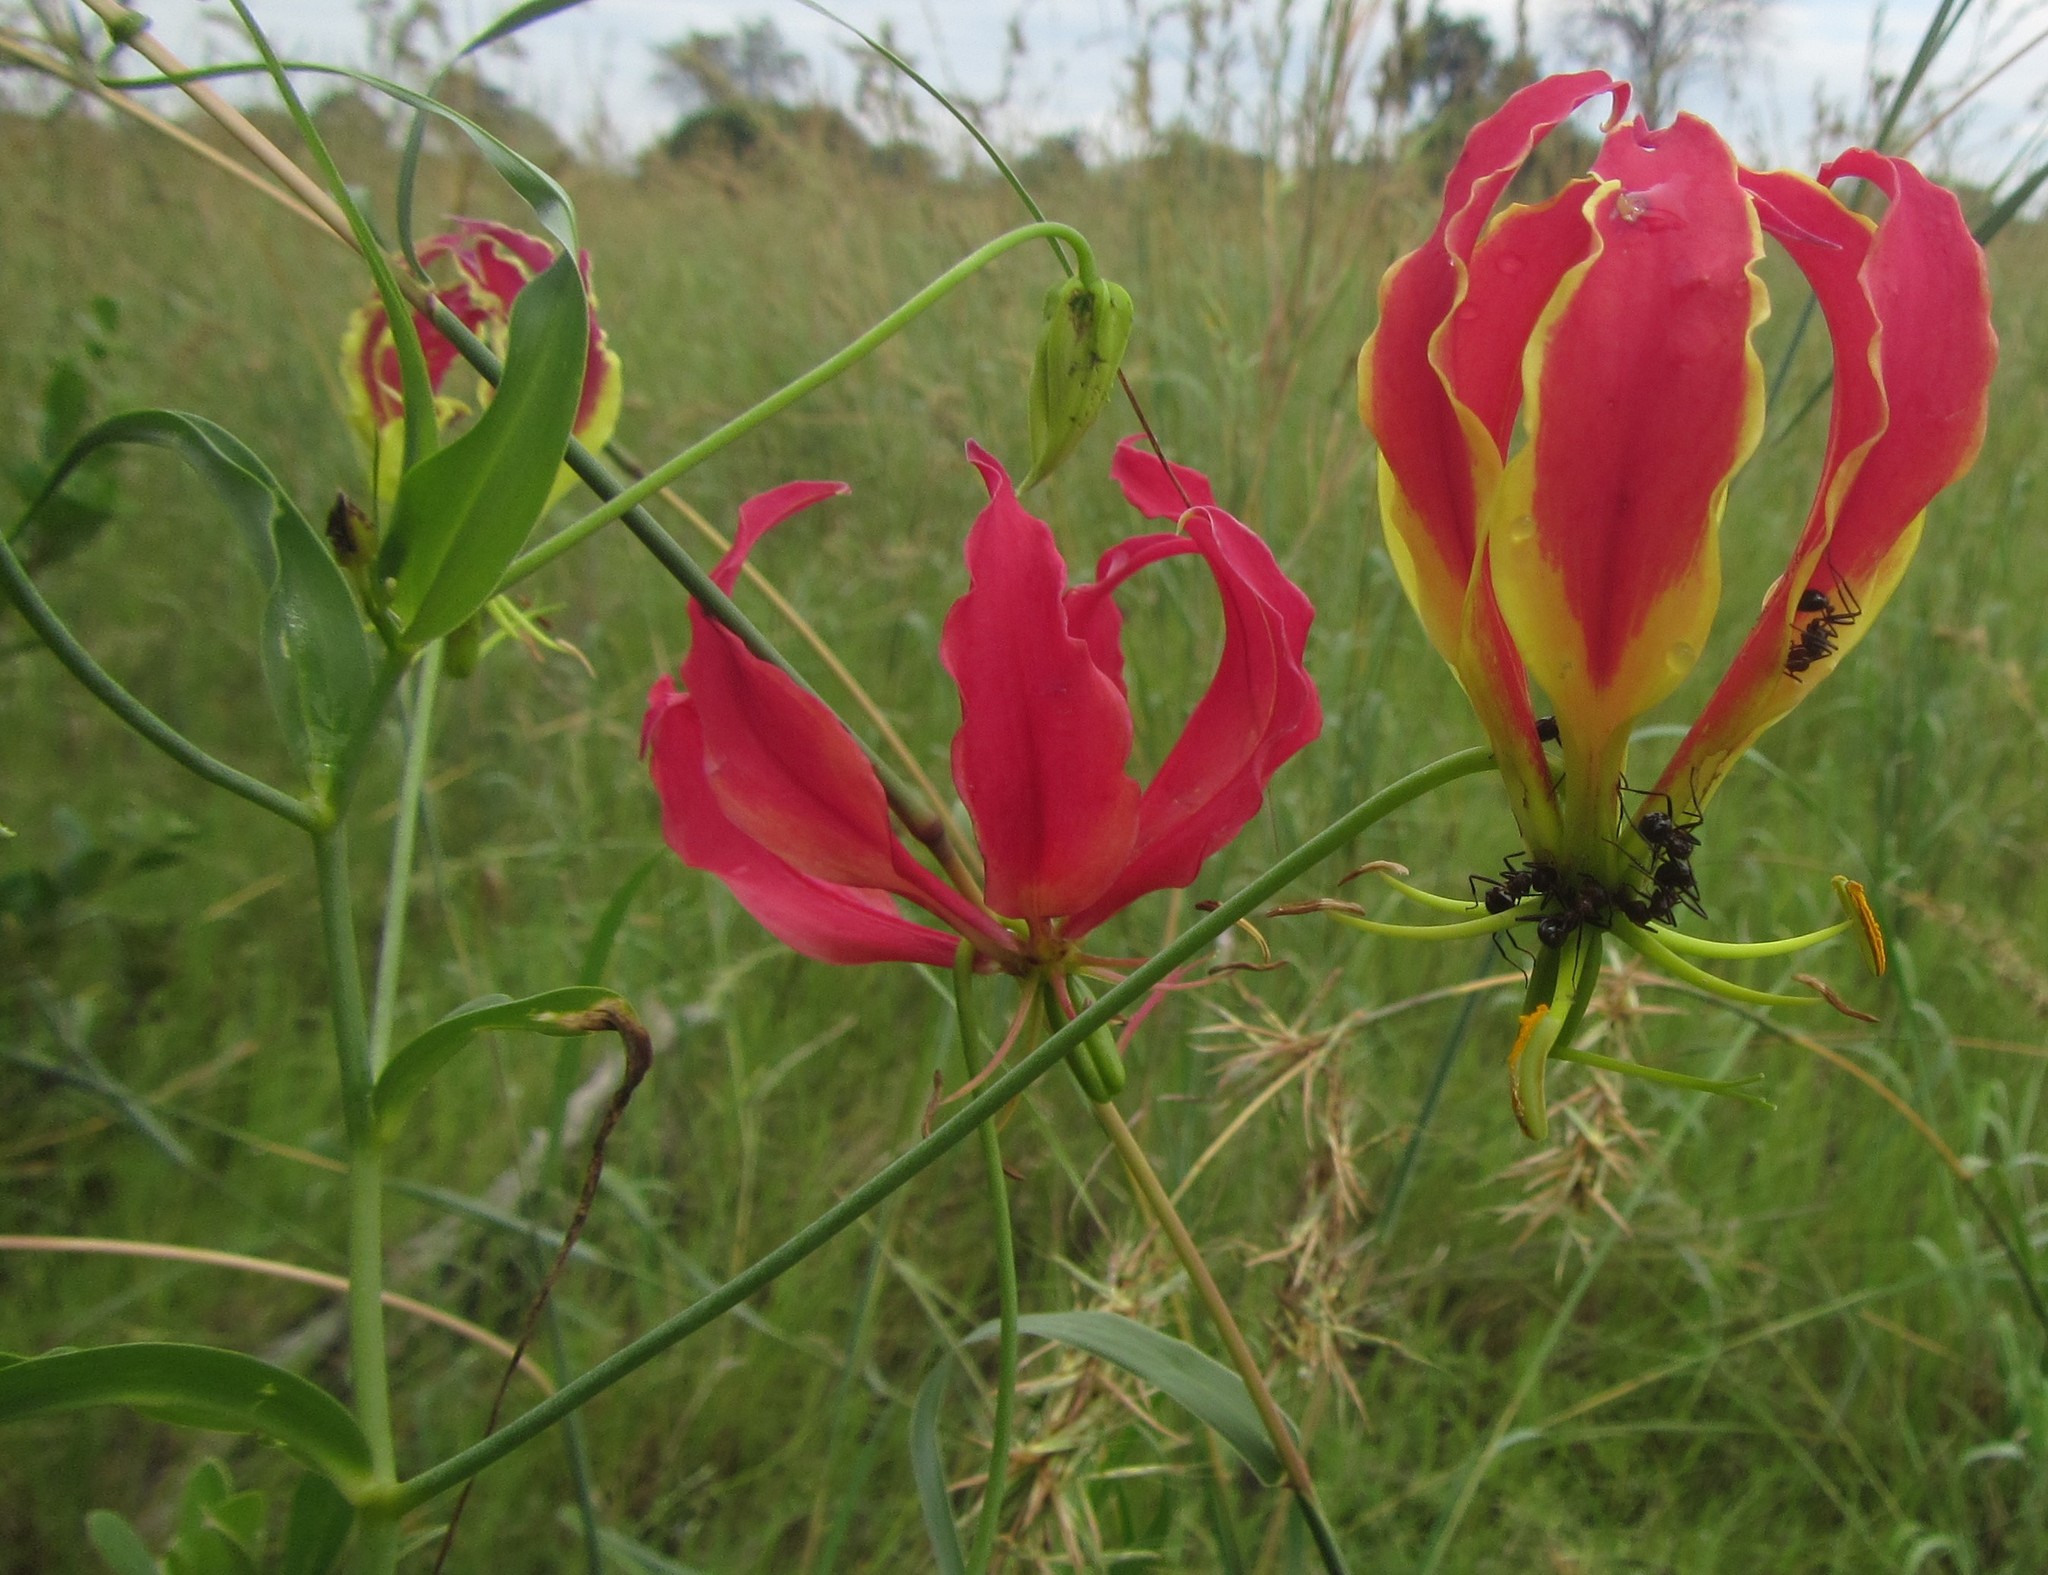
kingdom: Plantae
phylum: Tracheophyta
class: Liliopsida
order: Liliales
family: Colchicaceae
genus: Gloriosa
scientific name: Gloriosa superba
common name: Flame lily
